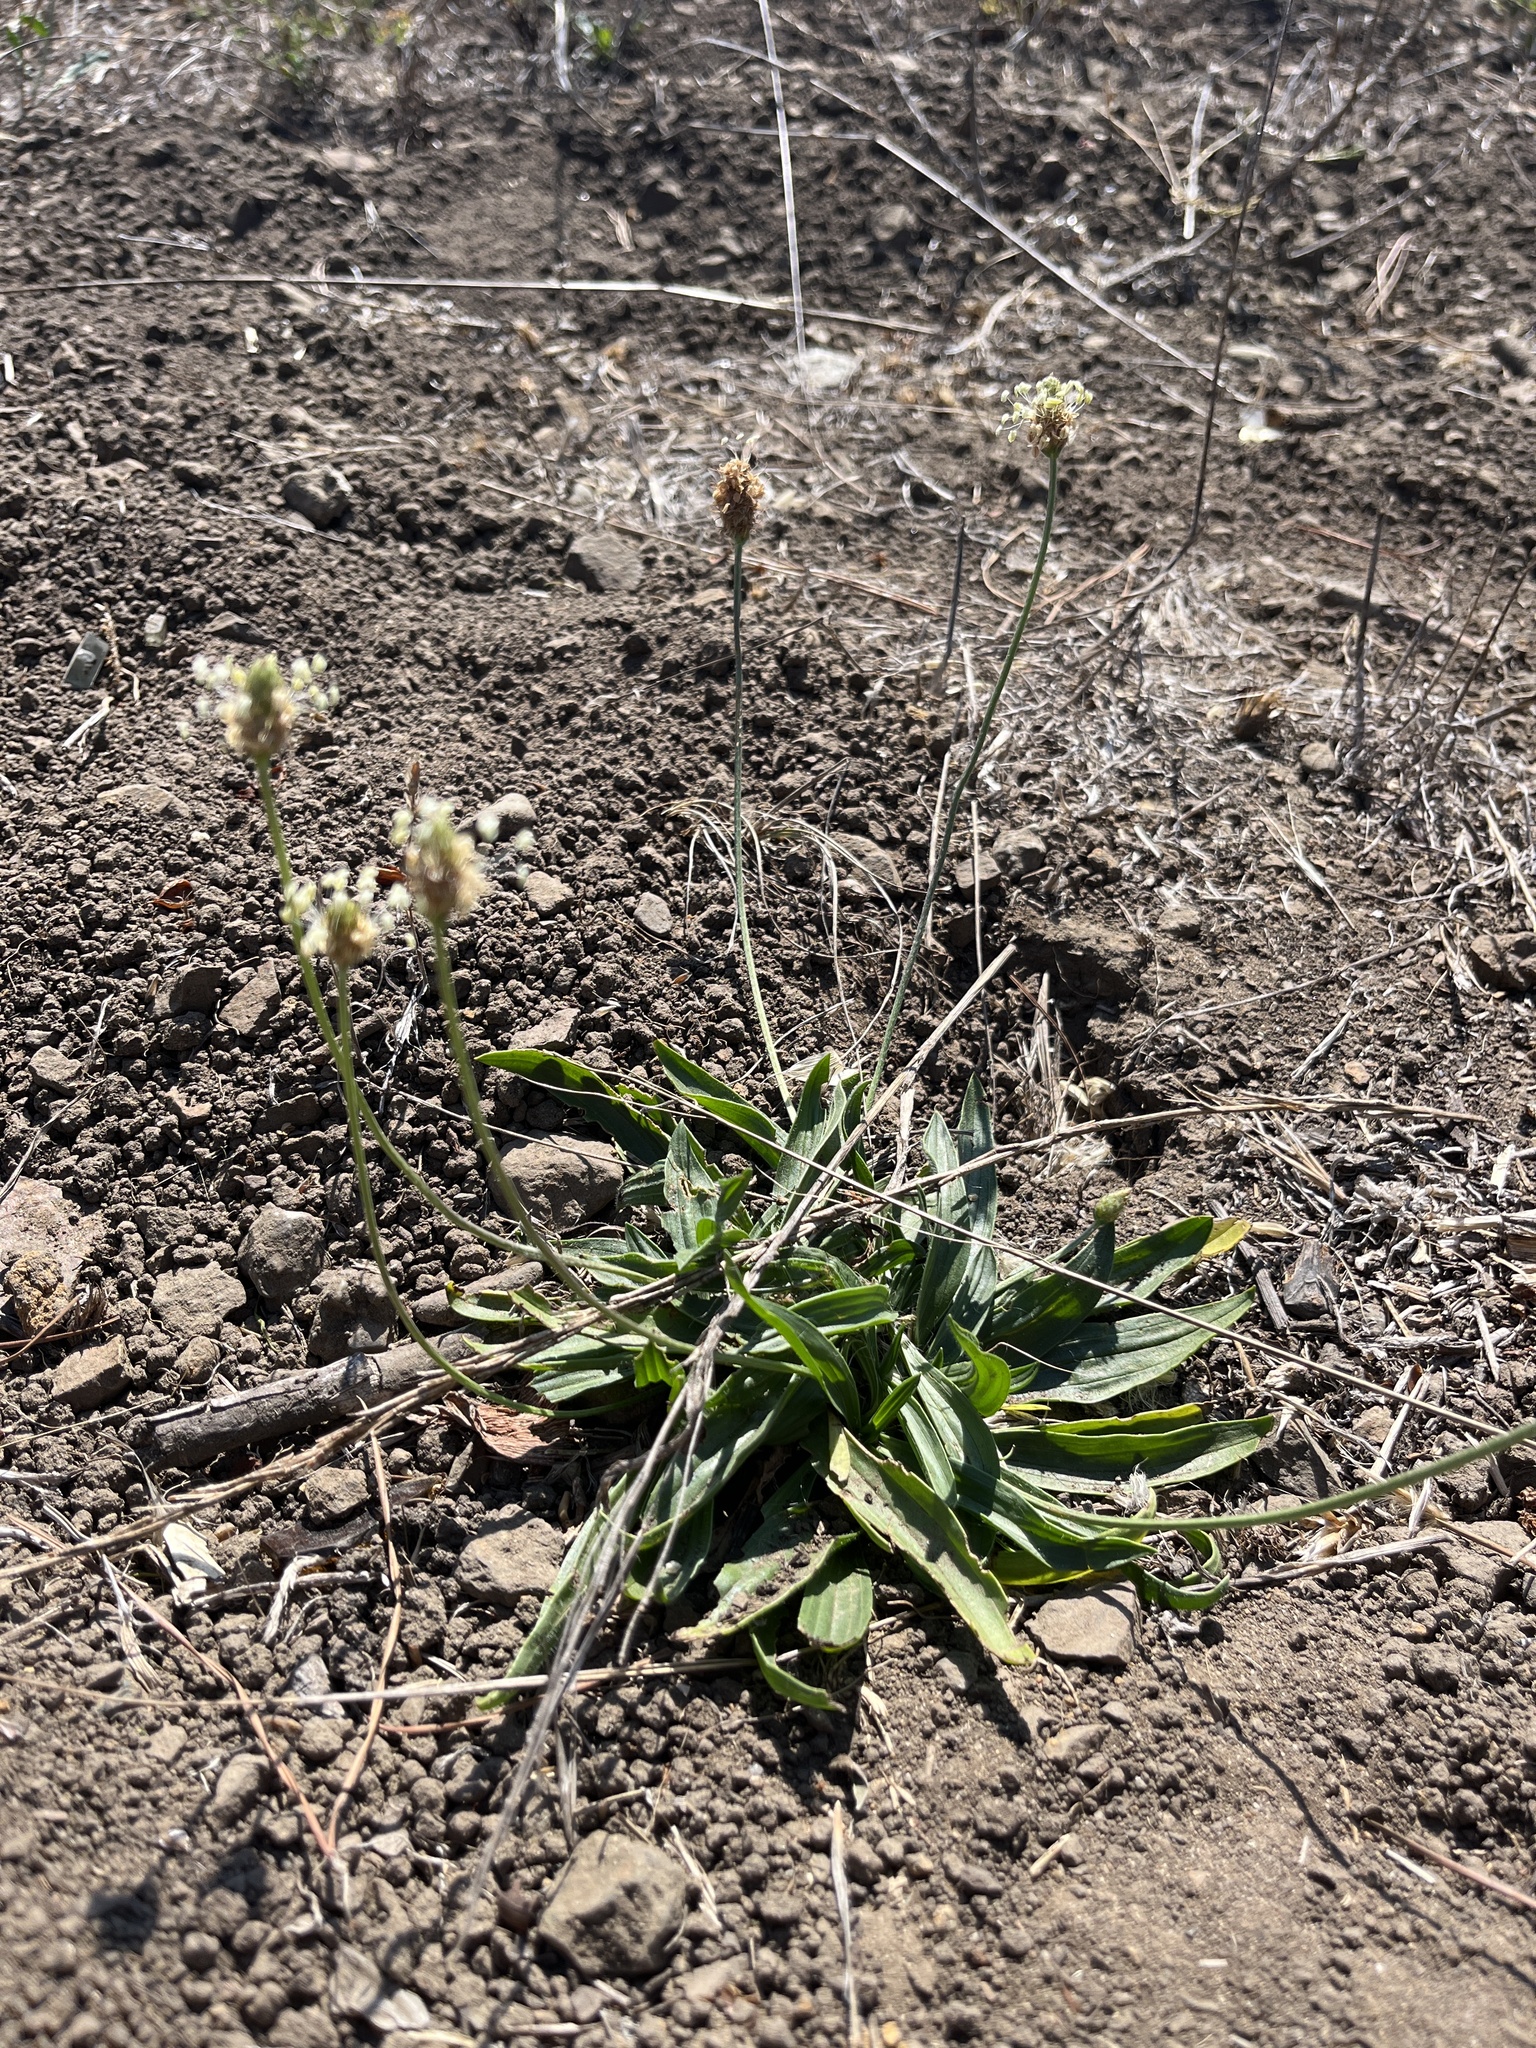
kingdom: Plantae
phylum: Tracheophyta
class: Magnoliopsida
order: Lamiales
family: Plantaginaceae
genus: Plantago
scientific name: Plantago lanceolata
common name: Ribwort plantain
